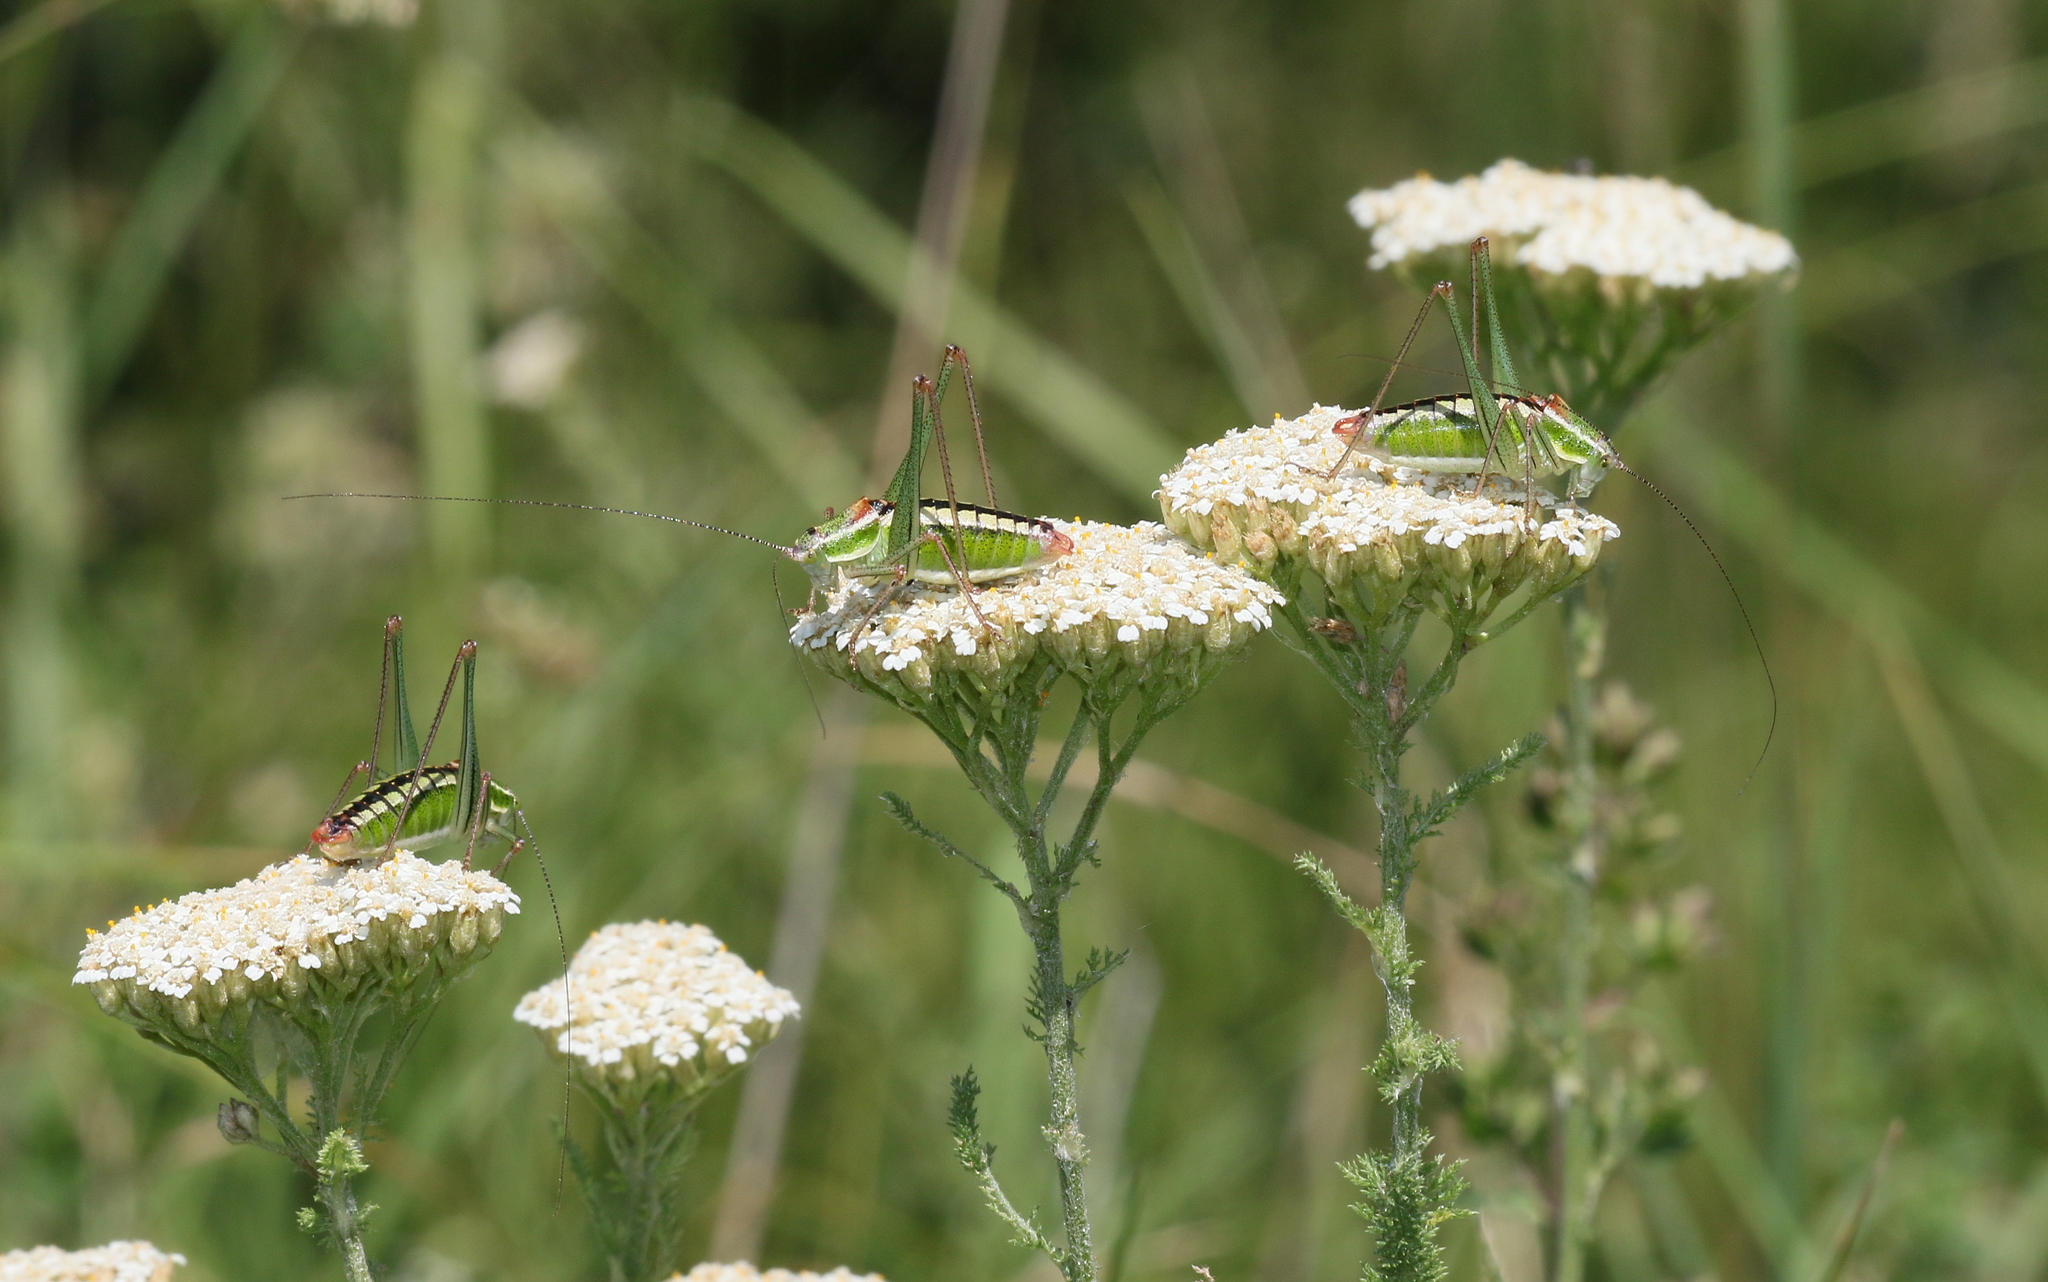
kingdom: Animalia
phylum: Arthropoda
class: Insecta
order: Orthoptera
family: Tettigoniidae
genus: Poecilimon
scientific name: Poecilimon macedonicus
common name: Macedonian bright bush-cricket
